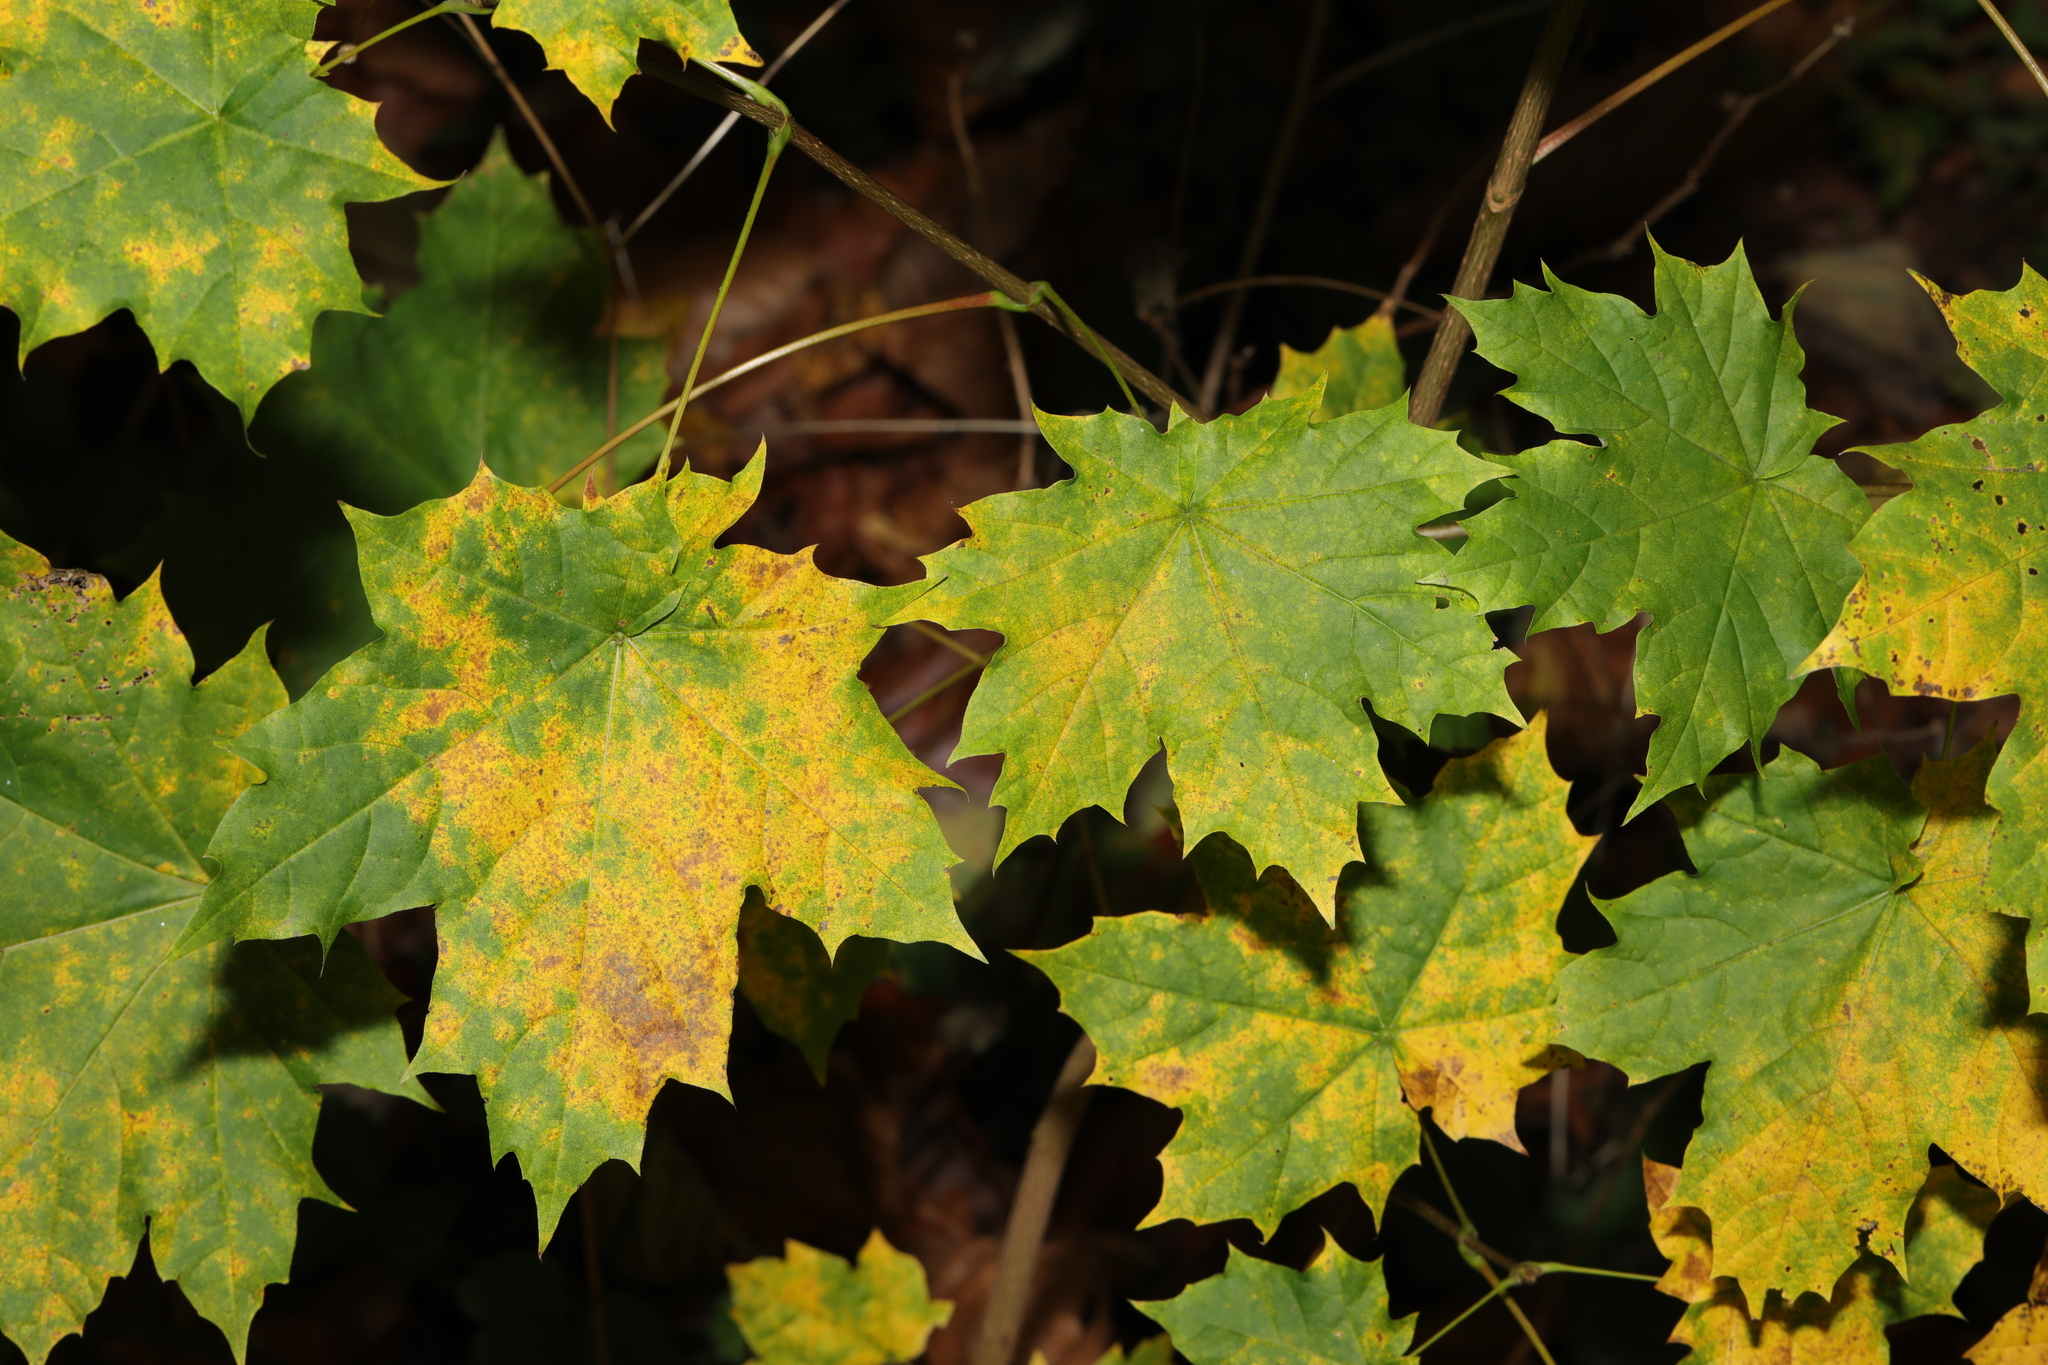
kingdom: Plantae
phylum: Tracheophyta
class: Magnoliopsida
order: Sapindales
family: Sapindaceae
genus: Acer
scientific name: Acer platanoides
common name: Norway maple
